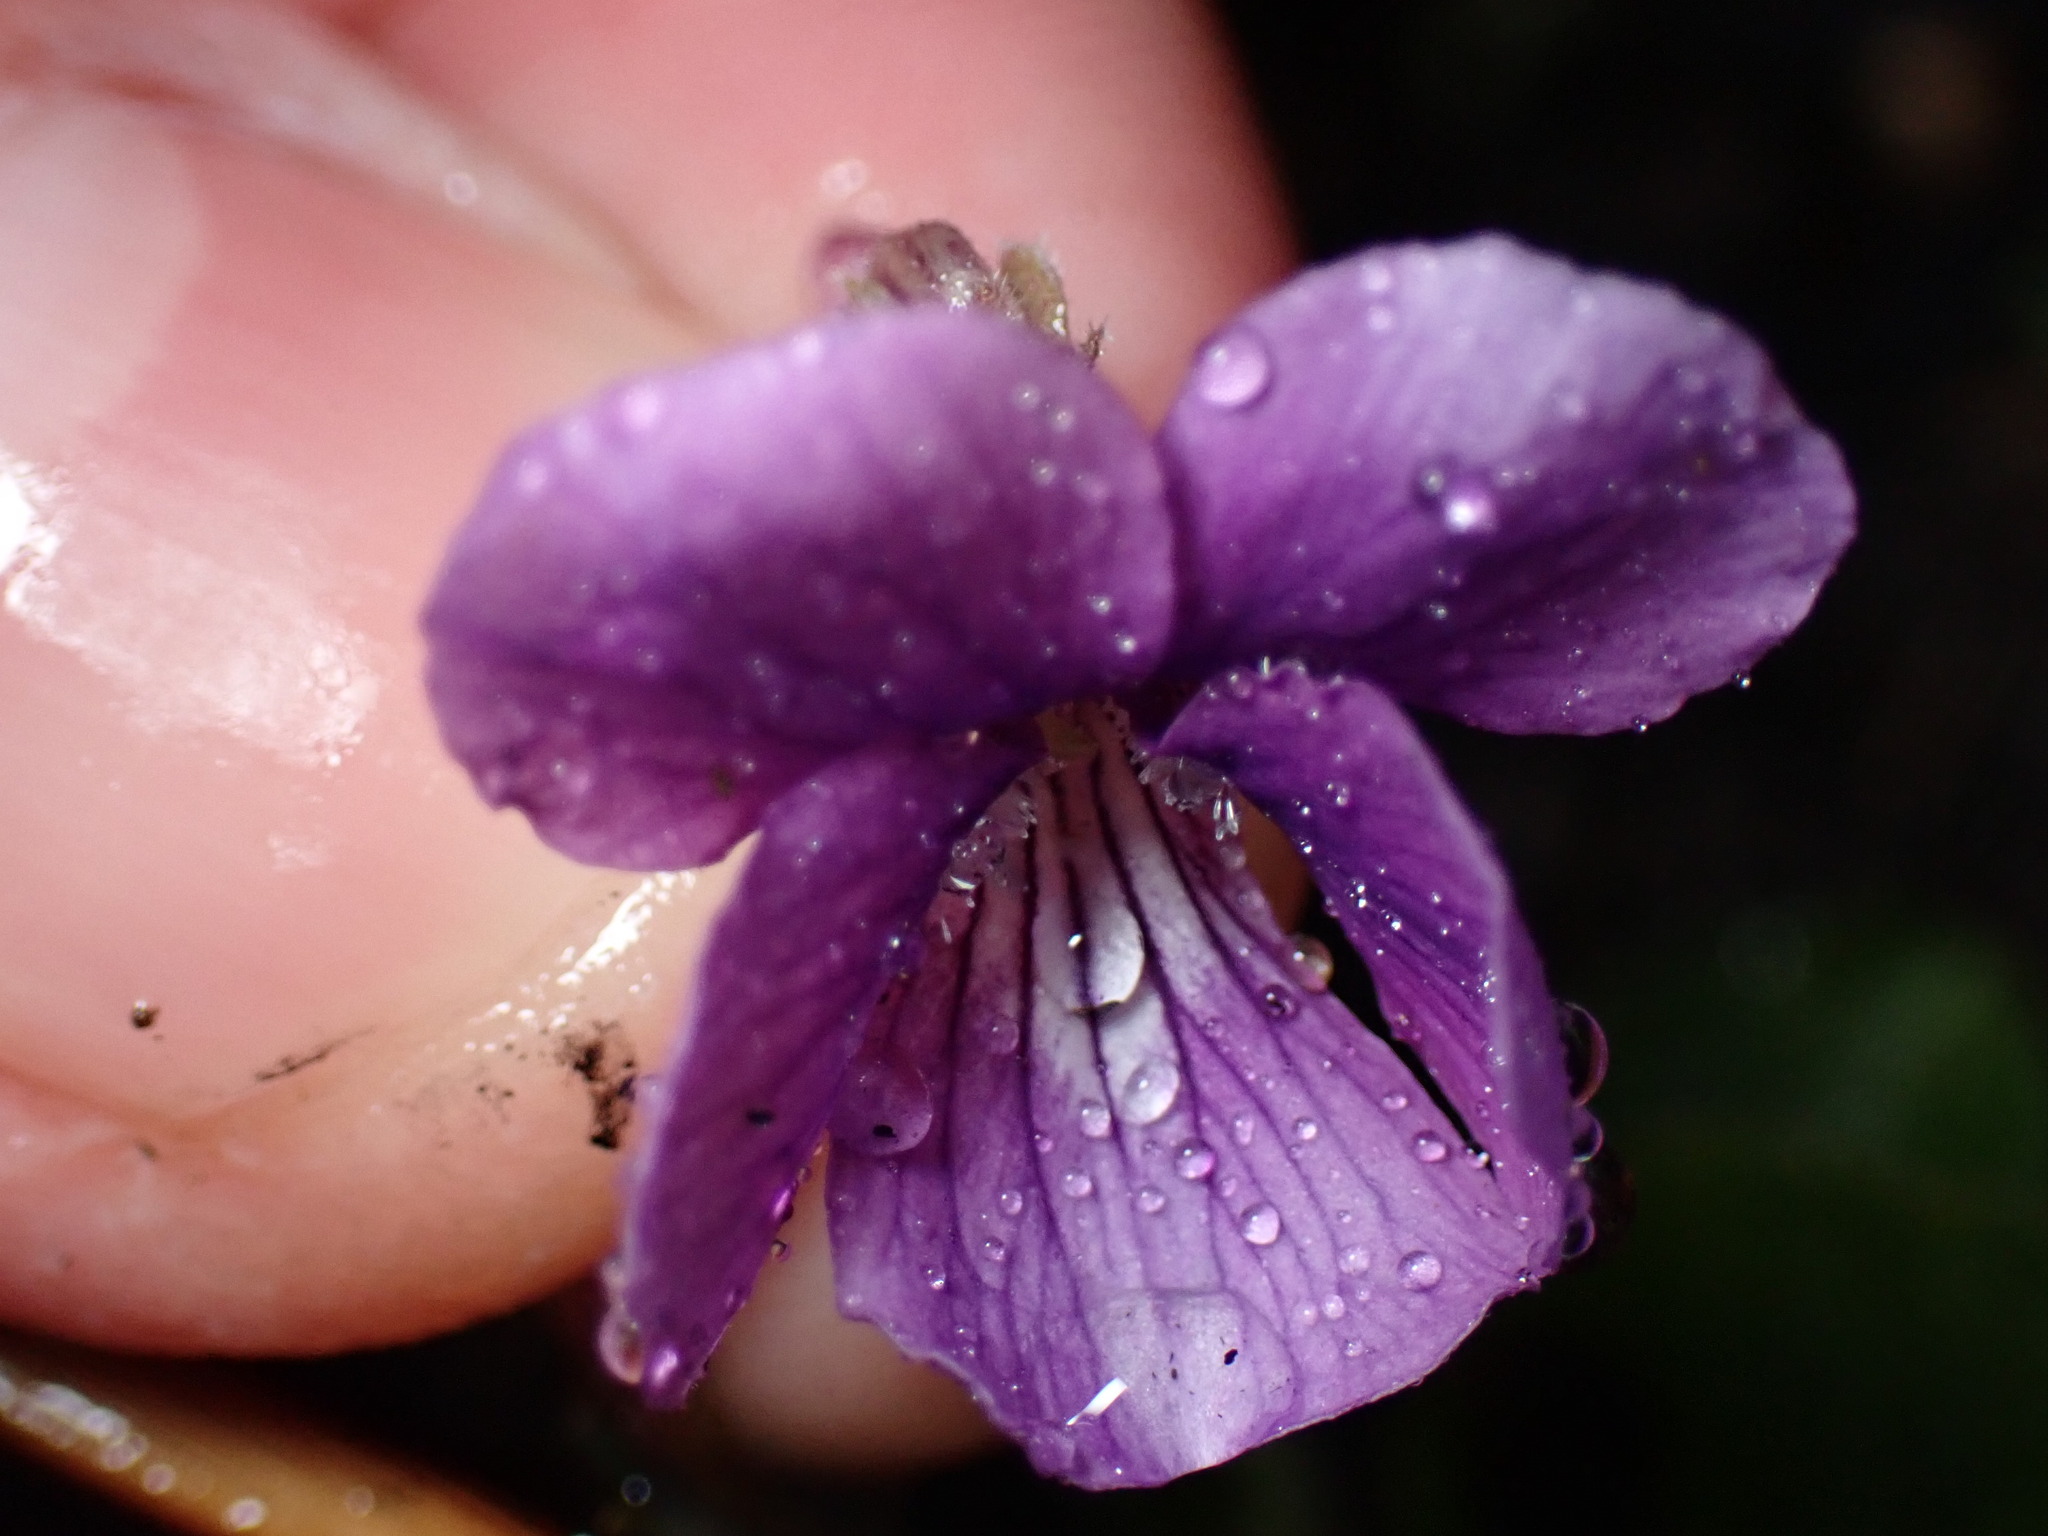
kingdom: Plantae
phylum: Tracheophyta
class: Magnoliopsida
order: Malpighiales
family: Violaceae
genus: Viola
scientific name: Viola phalacrocarpa
